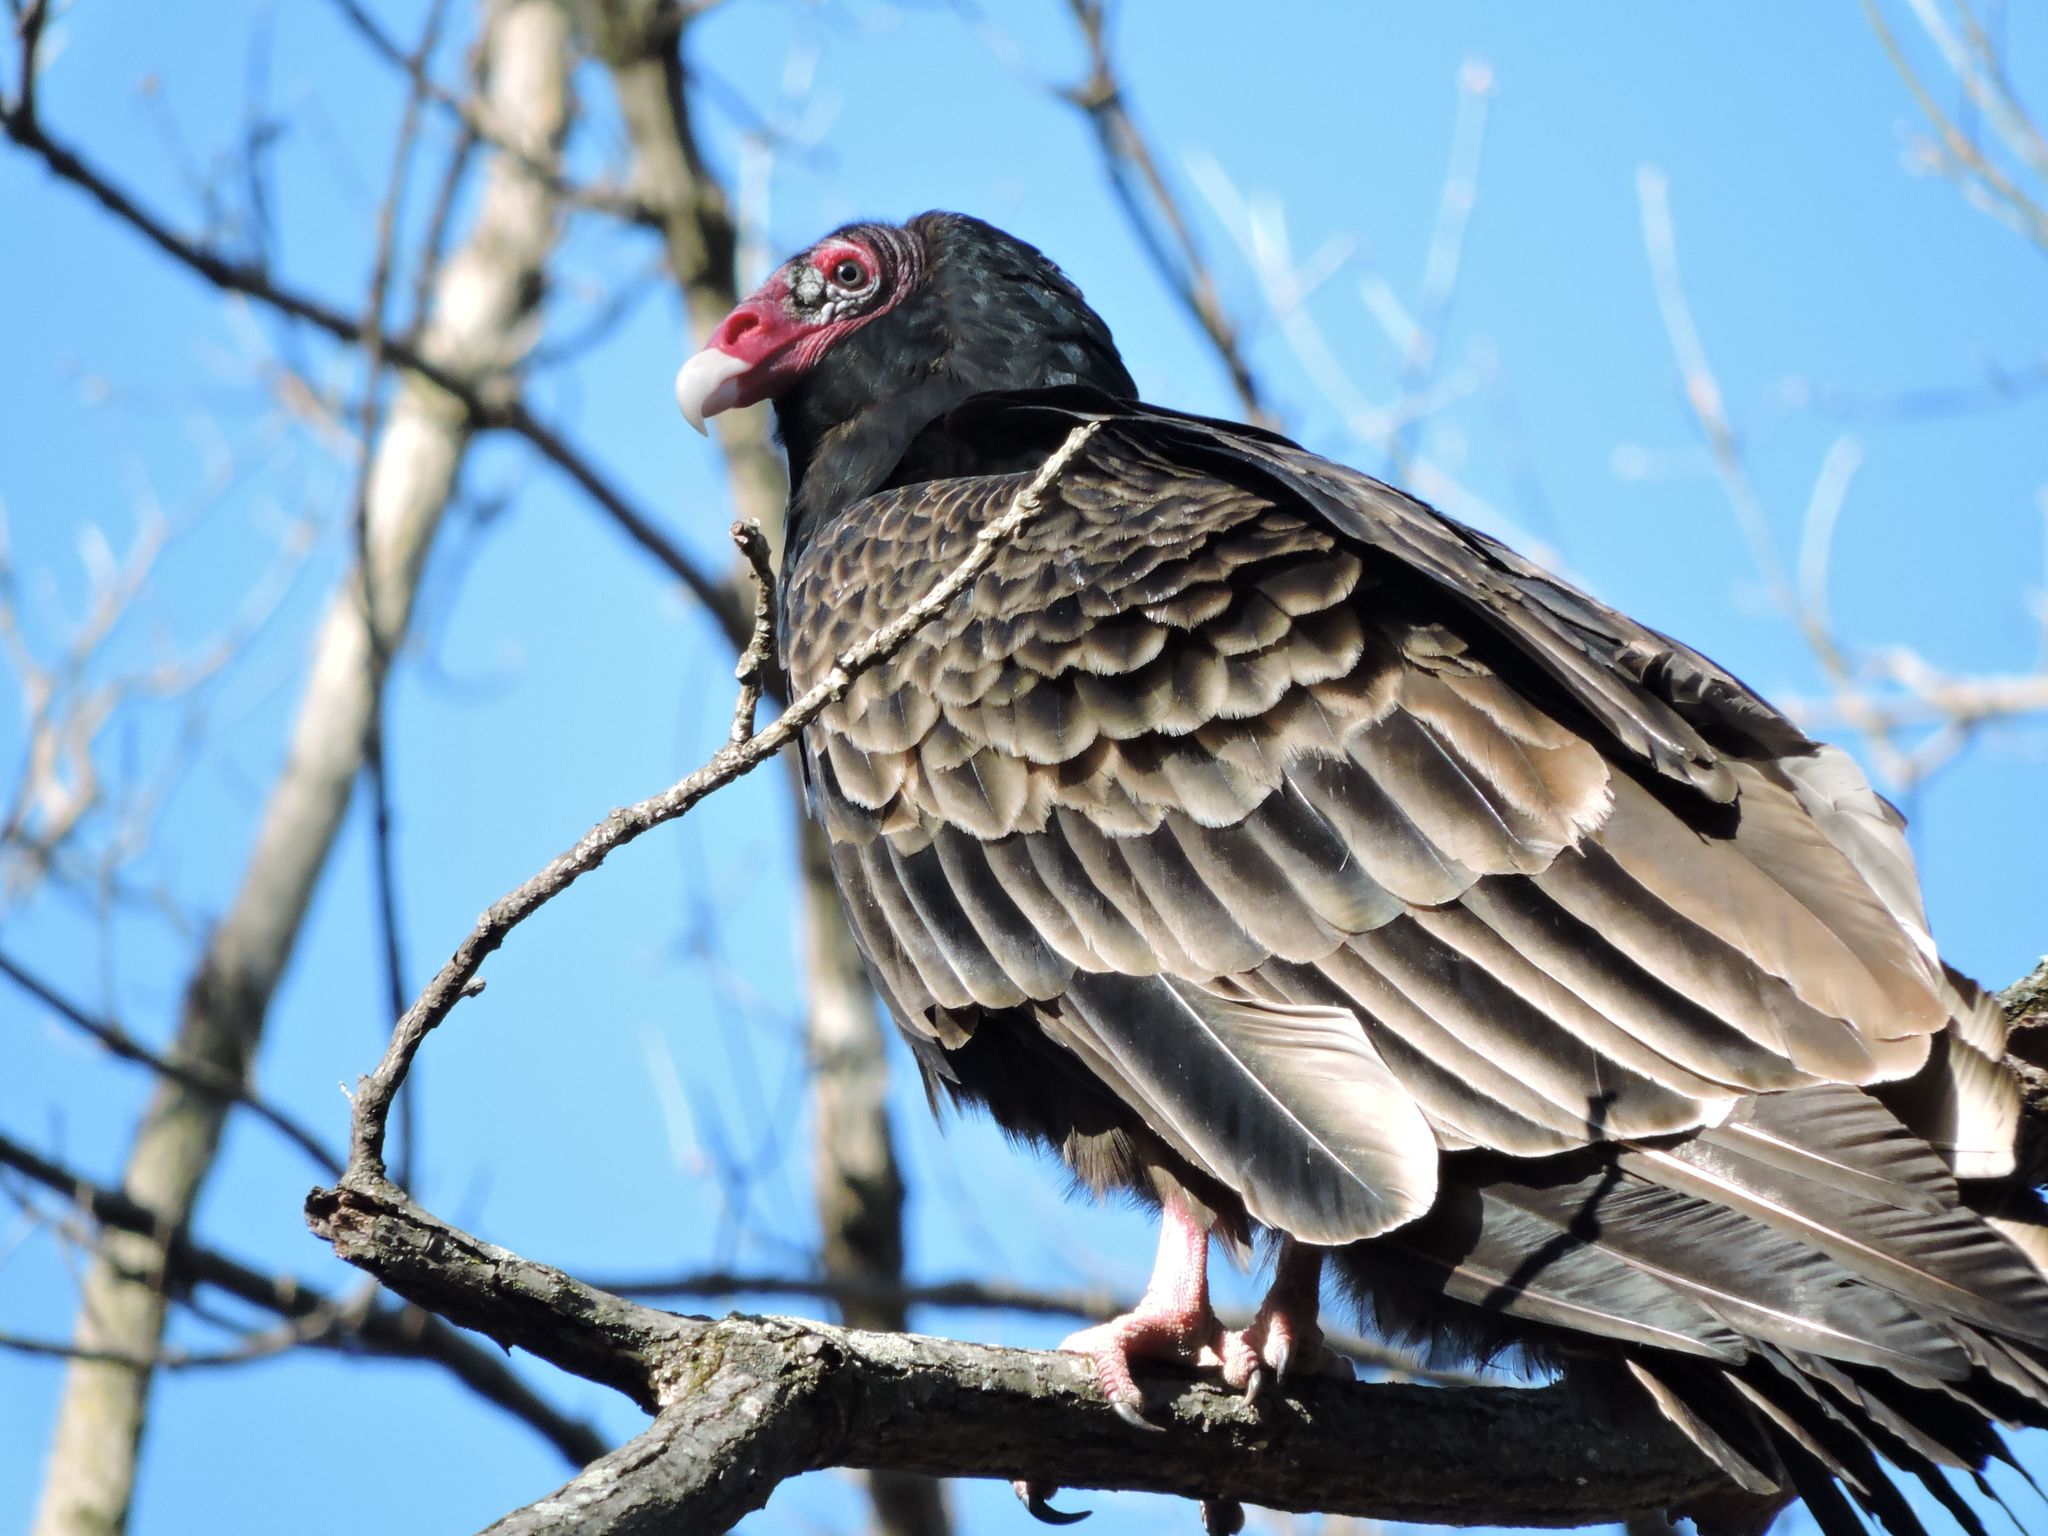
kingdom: Animalia
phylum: Chordata
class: Aves
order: Accipitriformes
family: Cathartidae
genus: Cathartes
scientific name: Cathartes aura
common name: Turkey vulture
